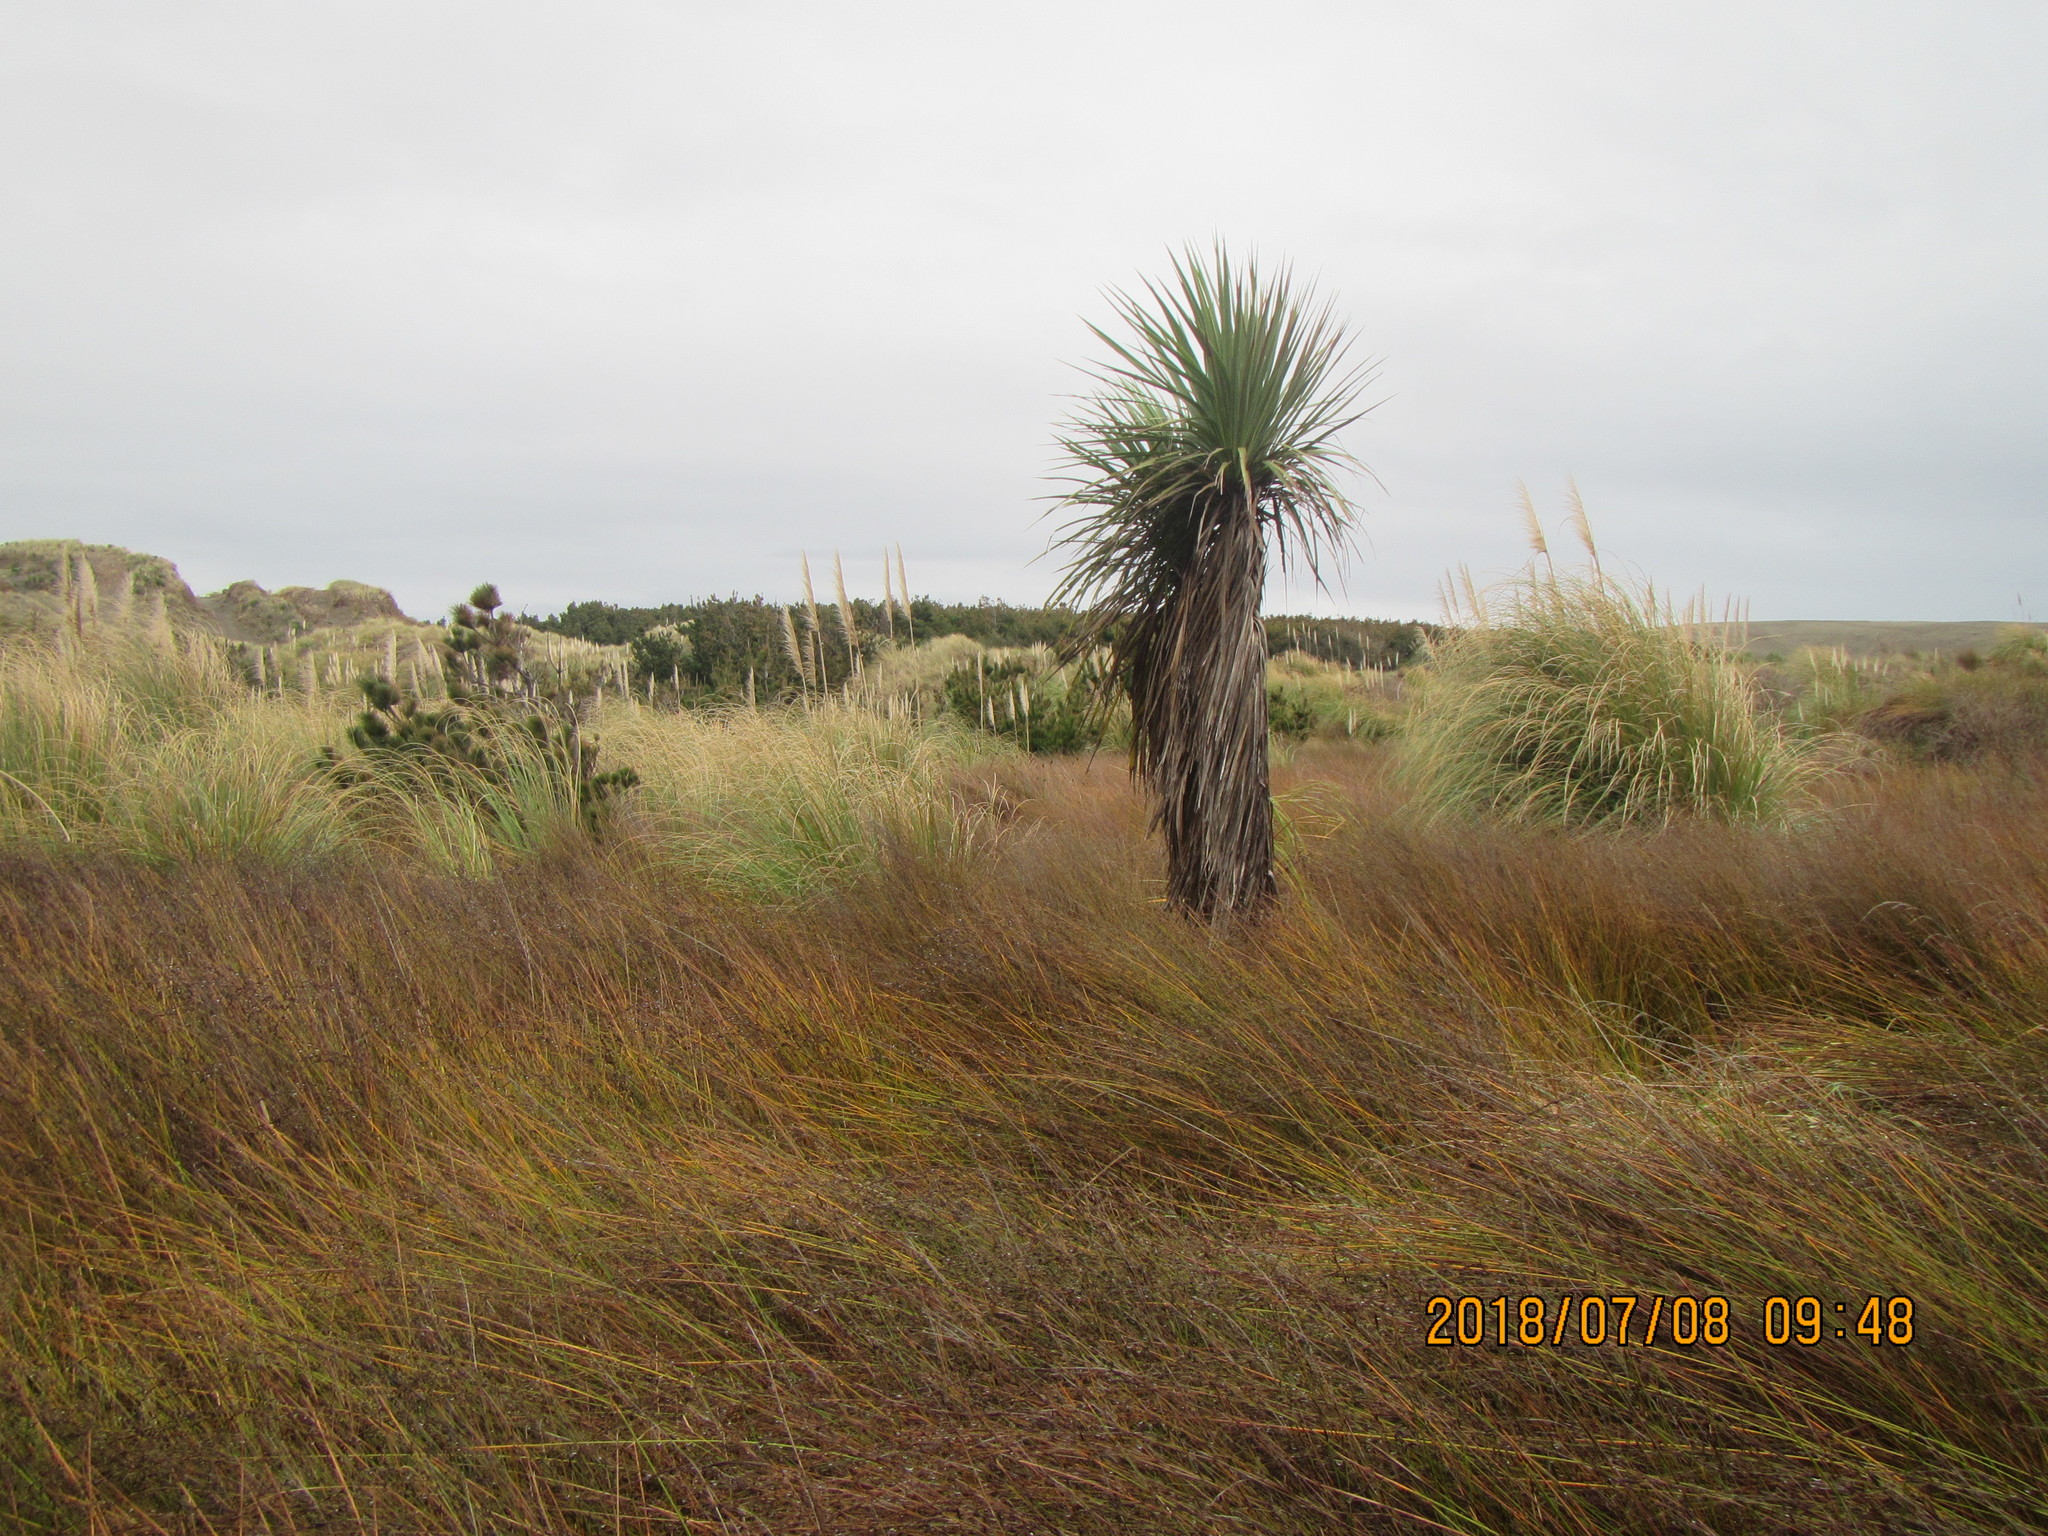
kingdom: Plantae
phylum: Tracheophyta
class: Liliopsida
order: Asparagales
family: Asparagaceae
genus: Cordyline
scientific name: Cordyline australis
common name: Cabbage-palm
